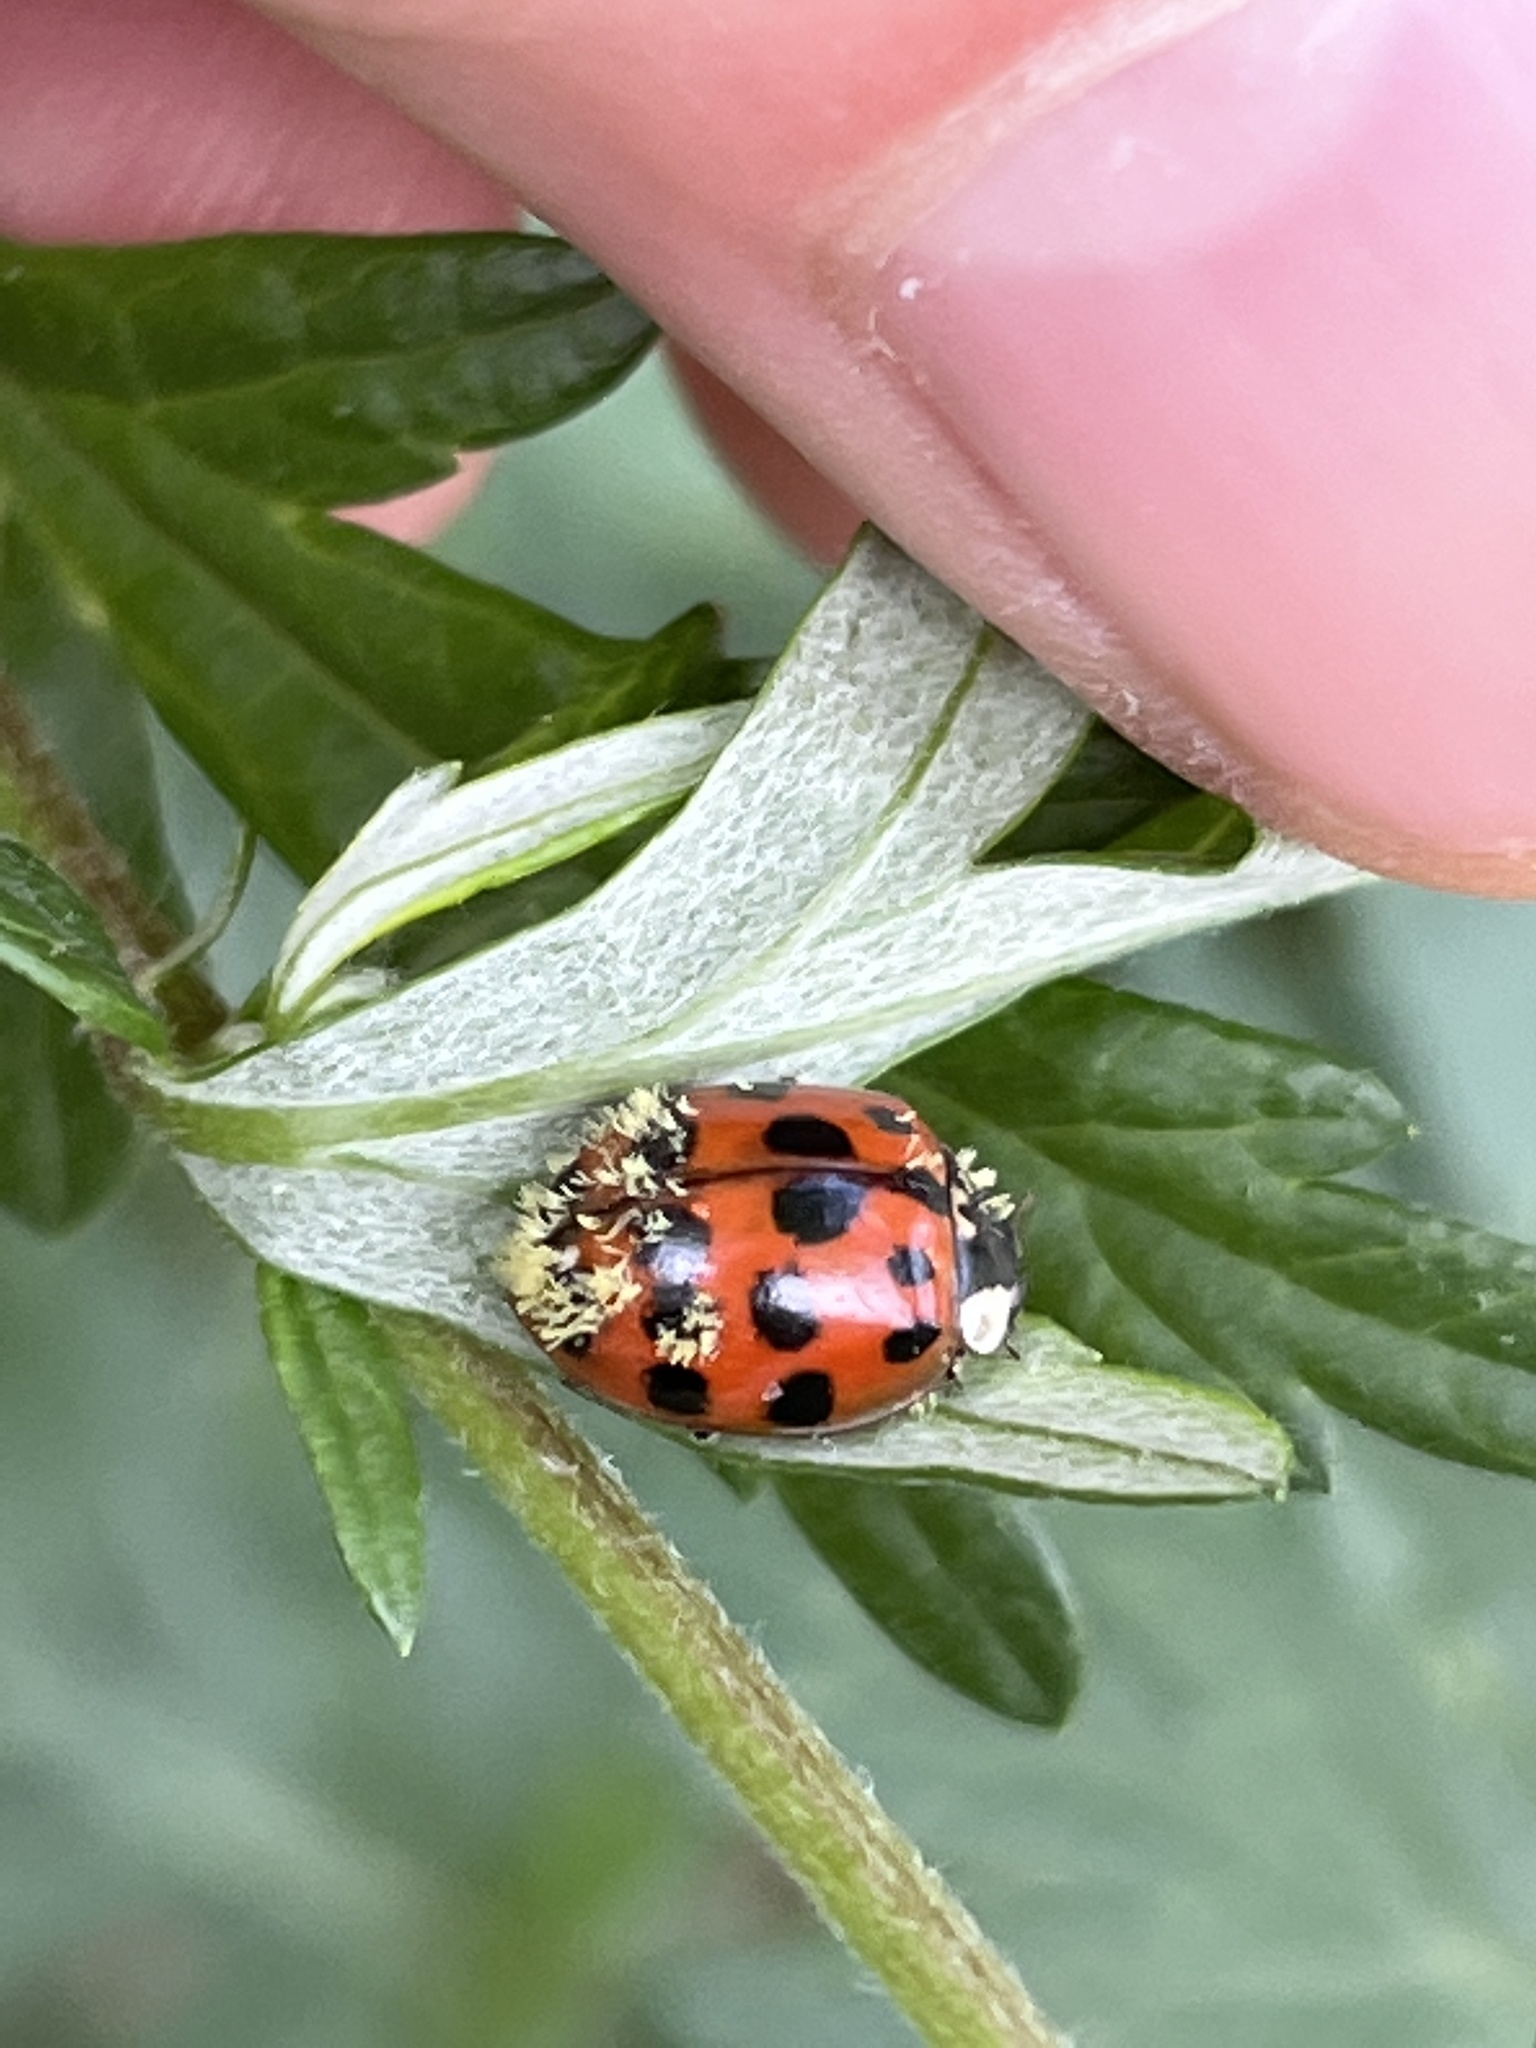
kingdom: Animalia
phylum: Arthropoda
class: Insecta
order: Coleoptera
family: Coccinellidae
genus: Harmonia
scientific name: Harmonia axyridis
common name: Harlequin ladybird
